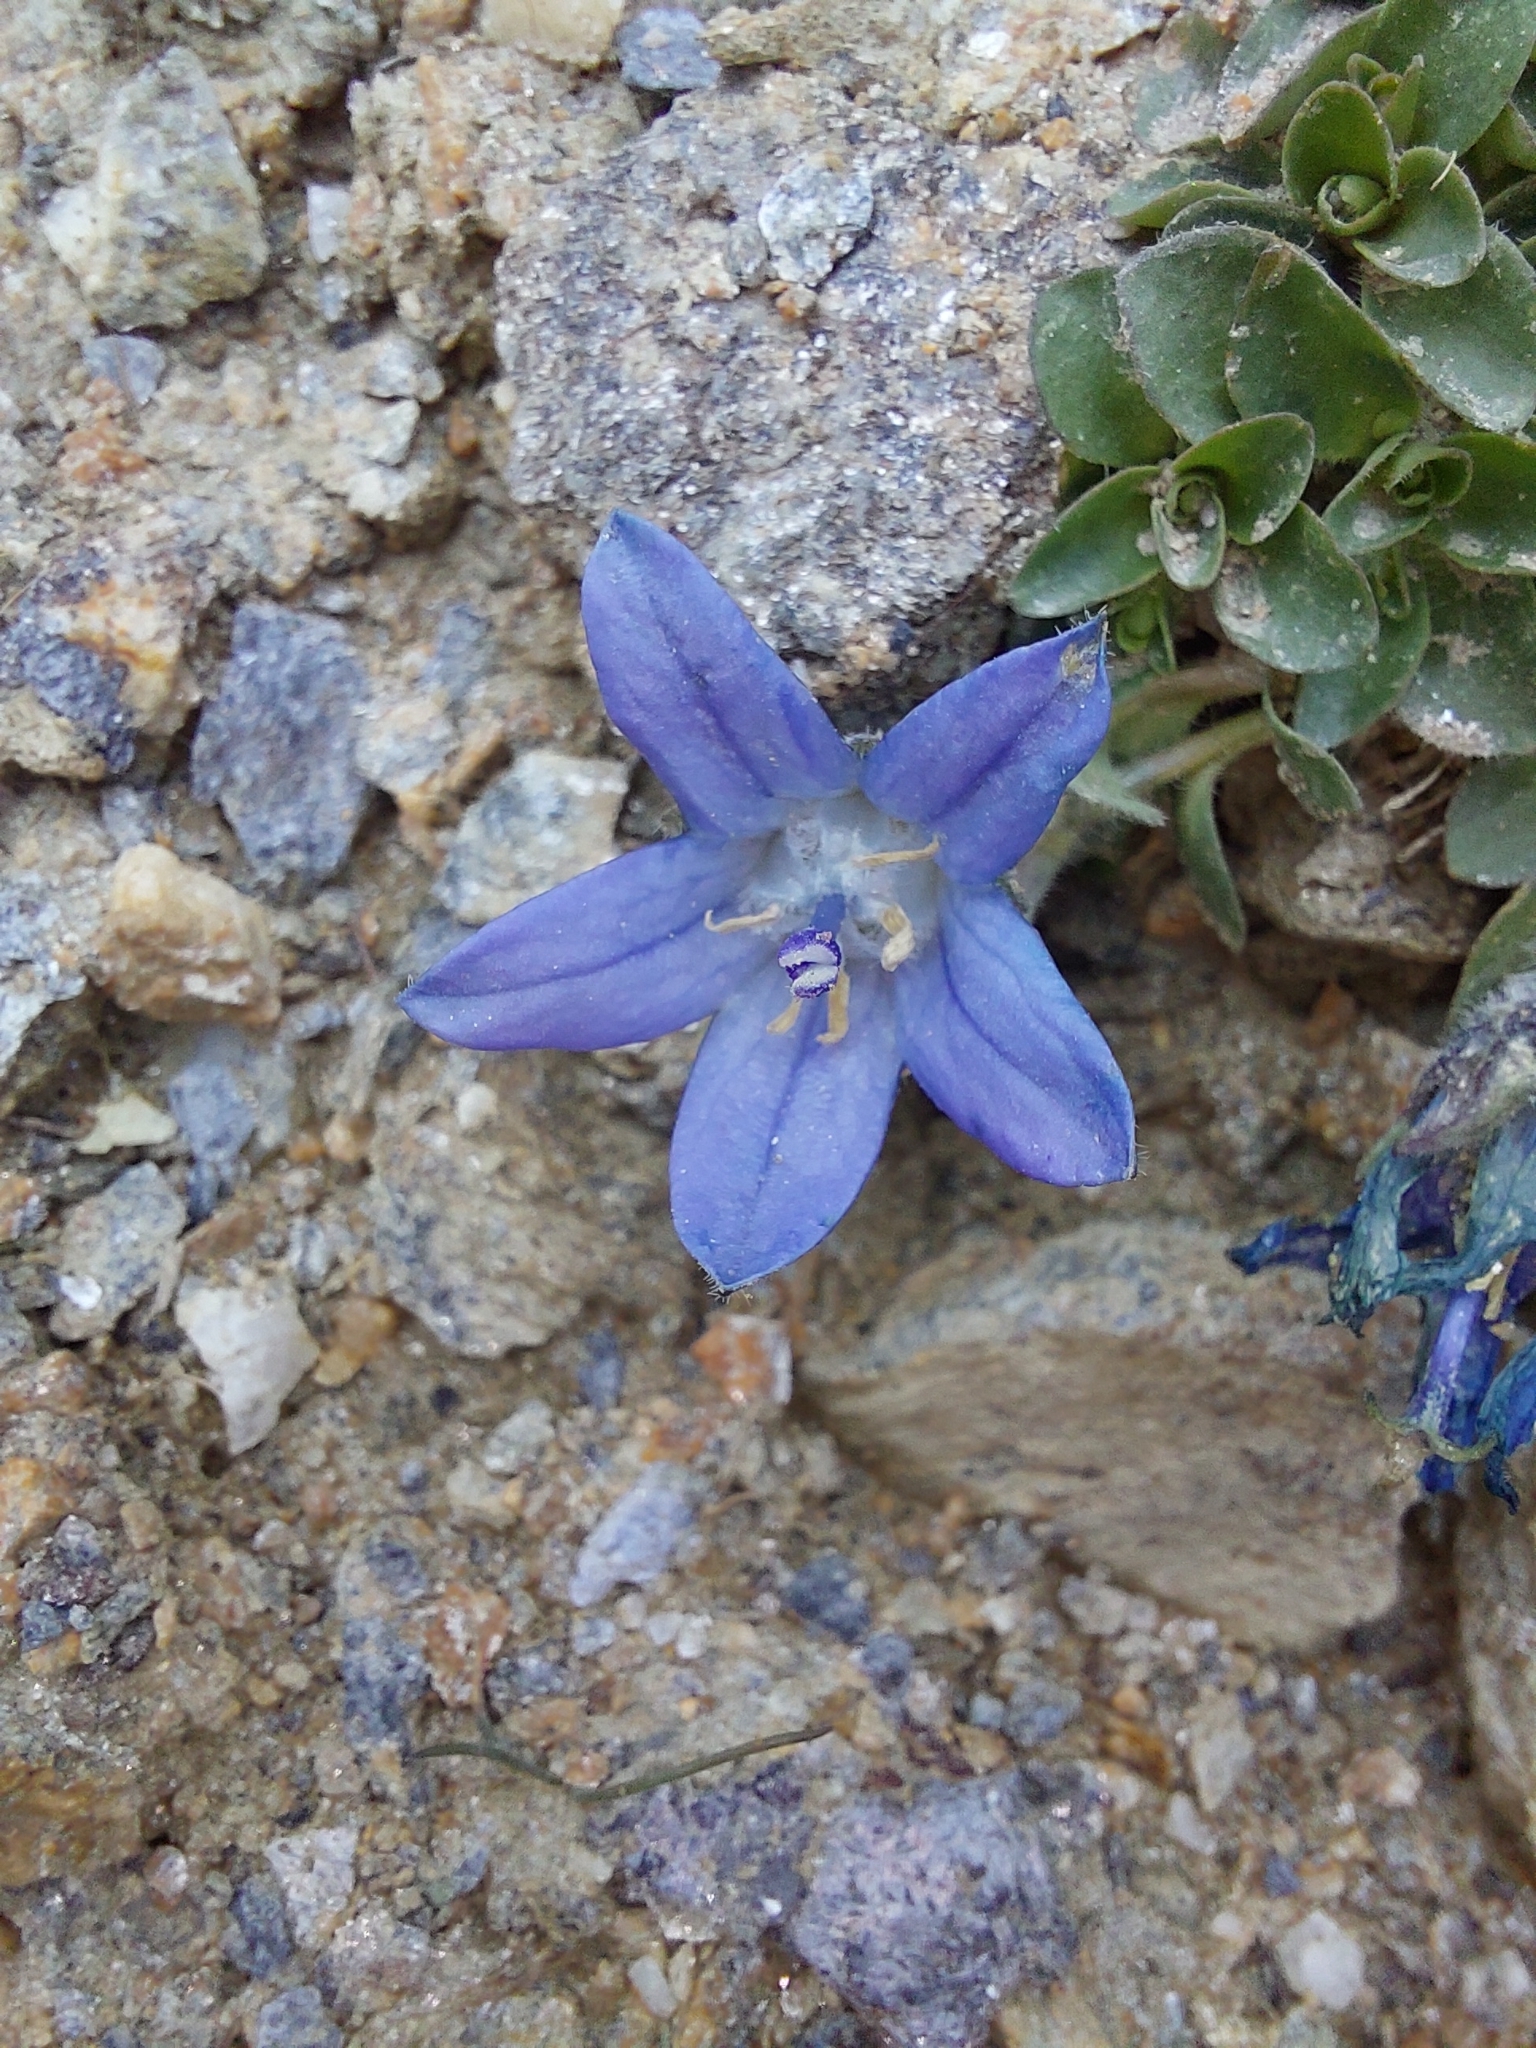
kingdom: Plantae
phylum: Tracheophyta
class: Magnoliopsida
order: Asterales
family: Campanulaceae
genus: Campanula
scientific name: Campanula cenisia
